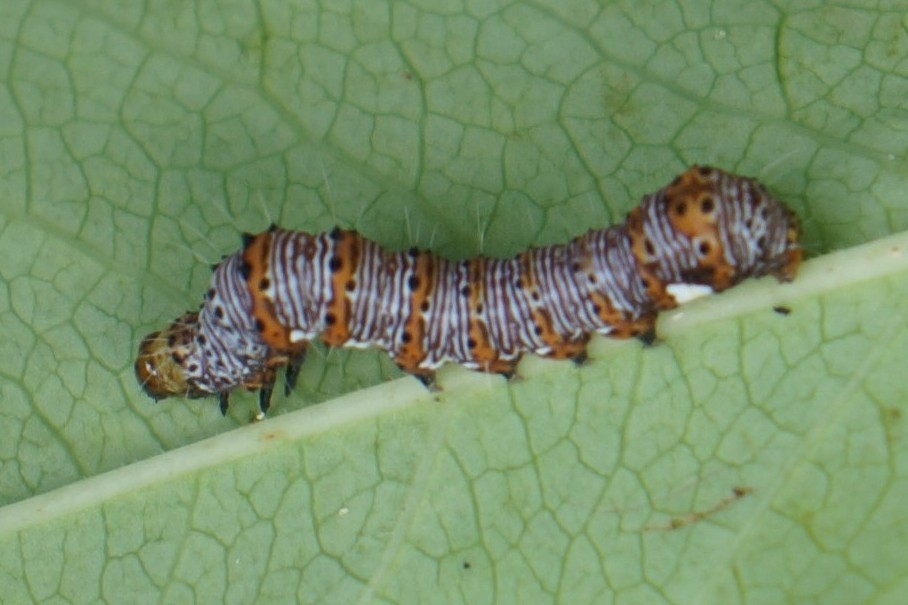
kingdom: Animalia
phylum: Arthropoda
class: Insecta
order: Lepidoptera
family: Noctuidae
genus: Alypia
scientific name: Alypia octomaculata
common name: Eight-spotted forester
